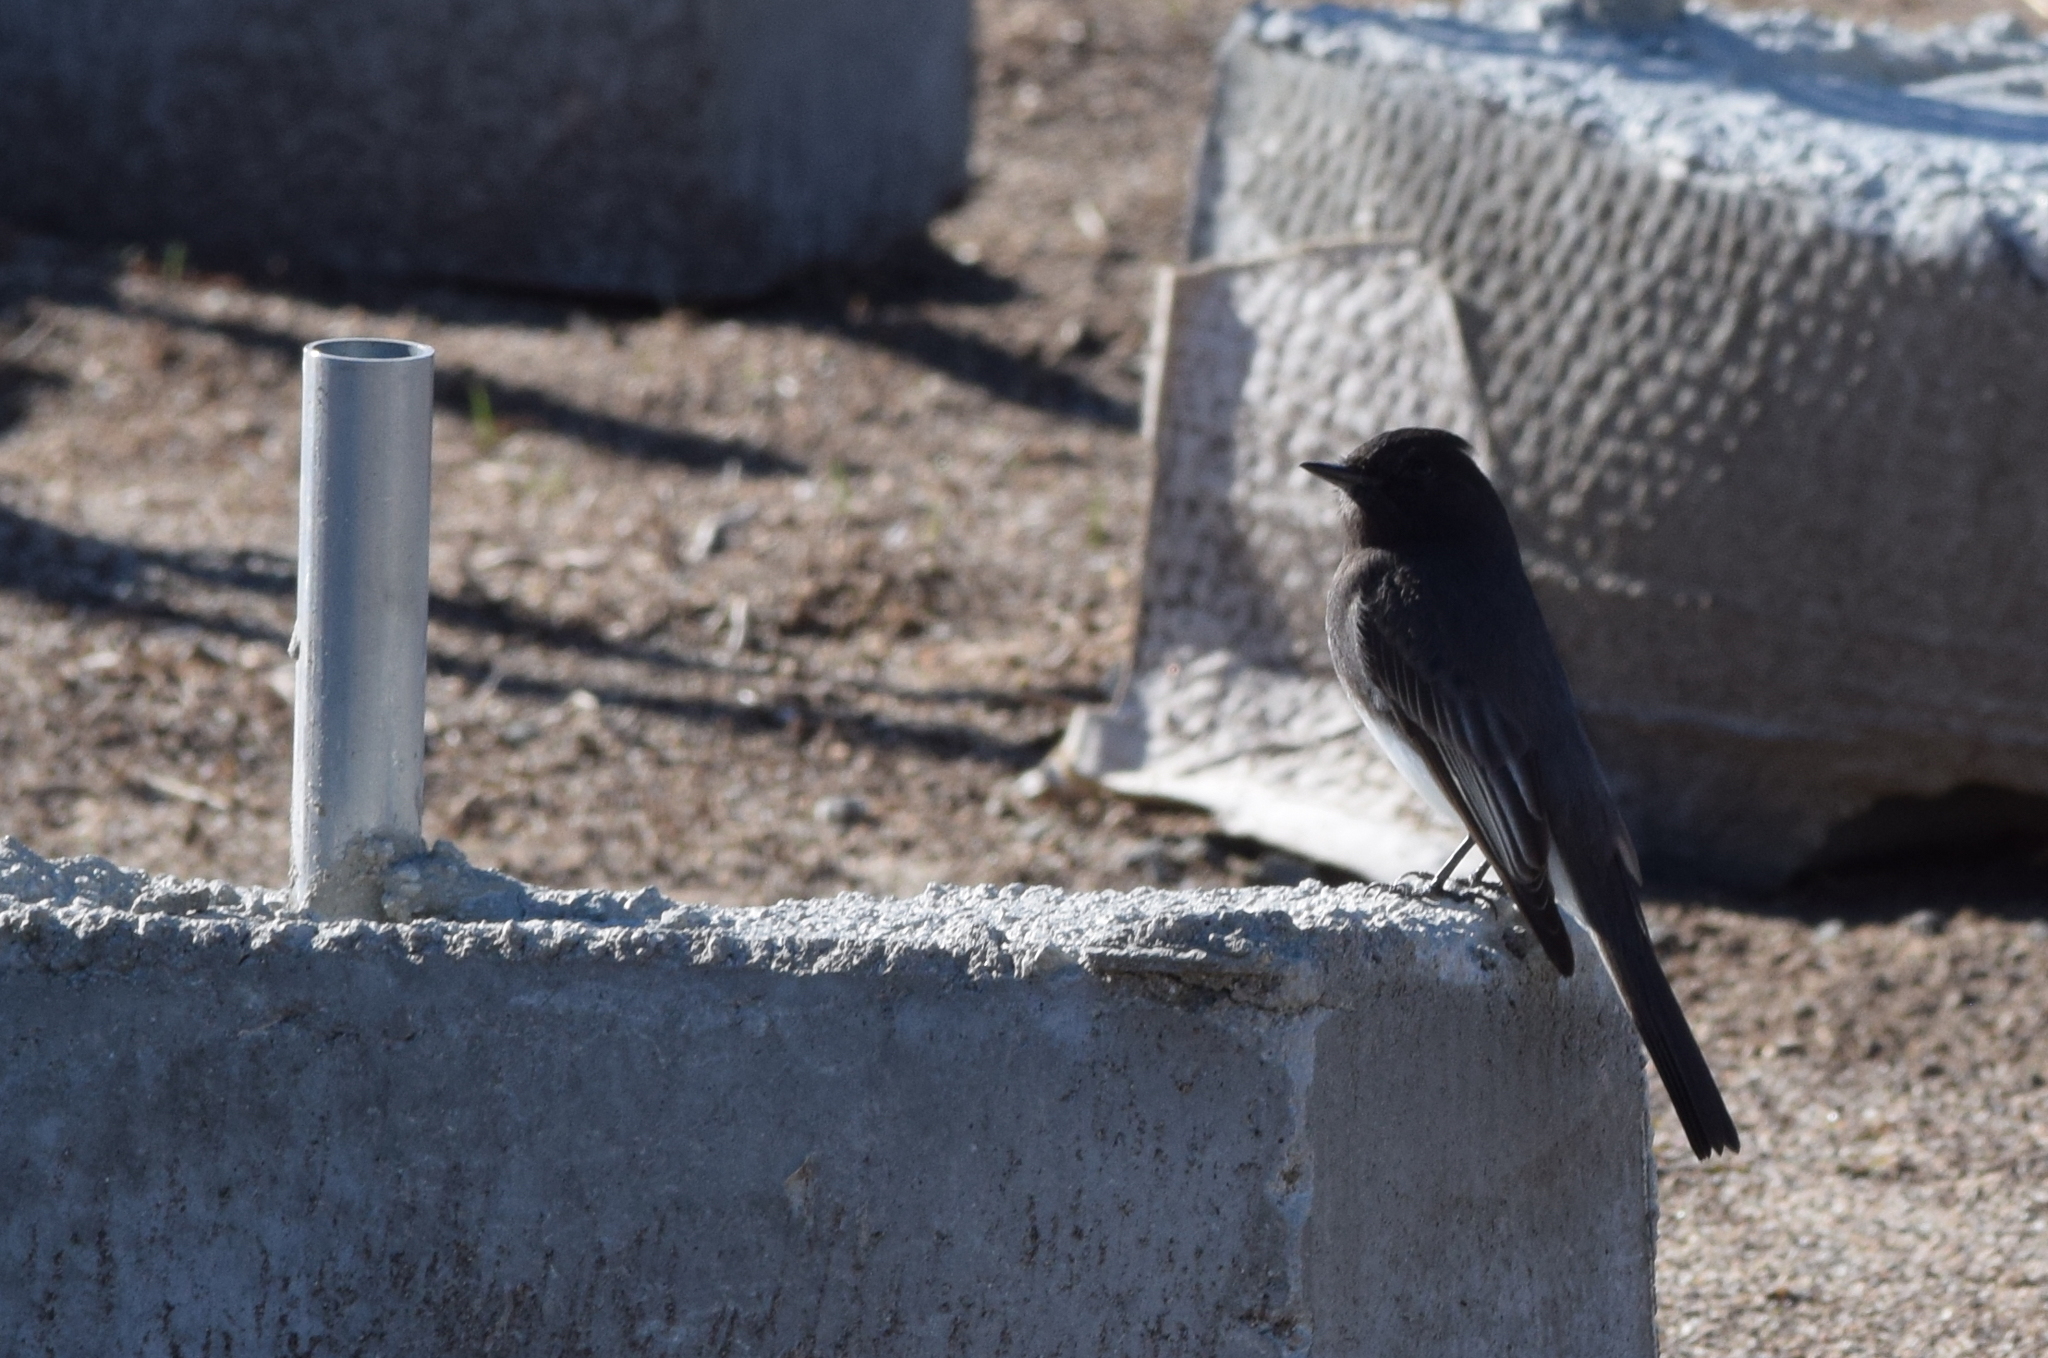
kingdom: Animalia
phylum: Chordata
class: Aves
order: Passeriformes
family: Tyrannidae
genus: Sayornis
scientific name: Sayornis nigricans
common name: Black phoebe
